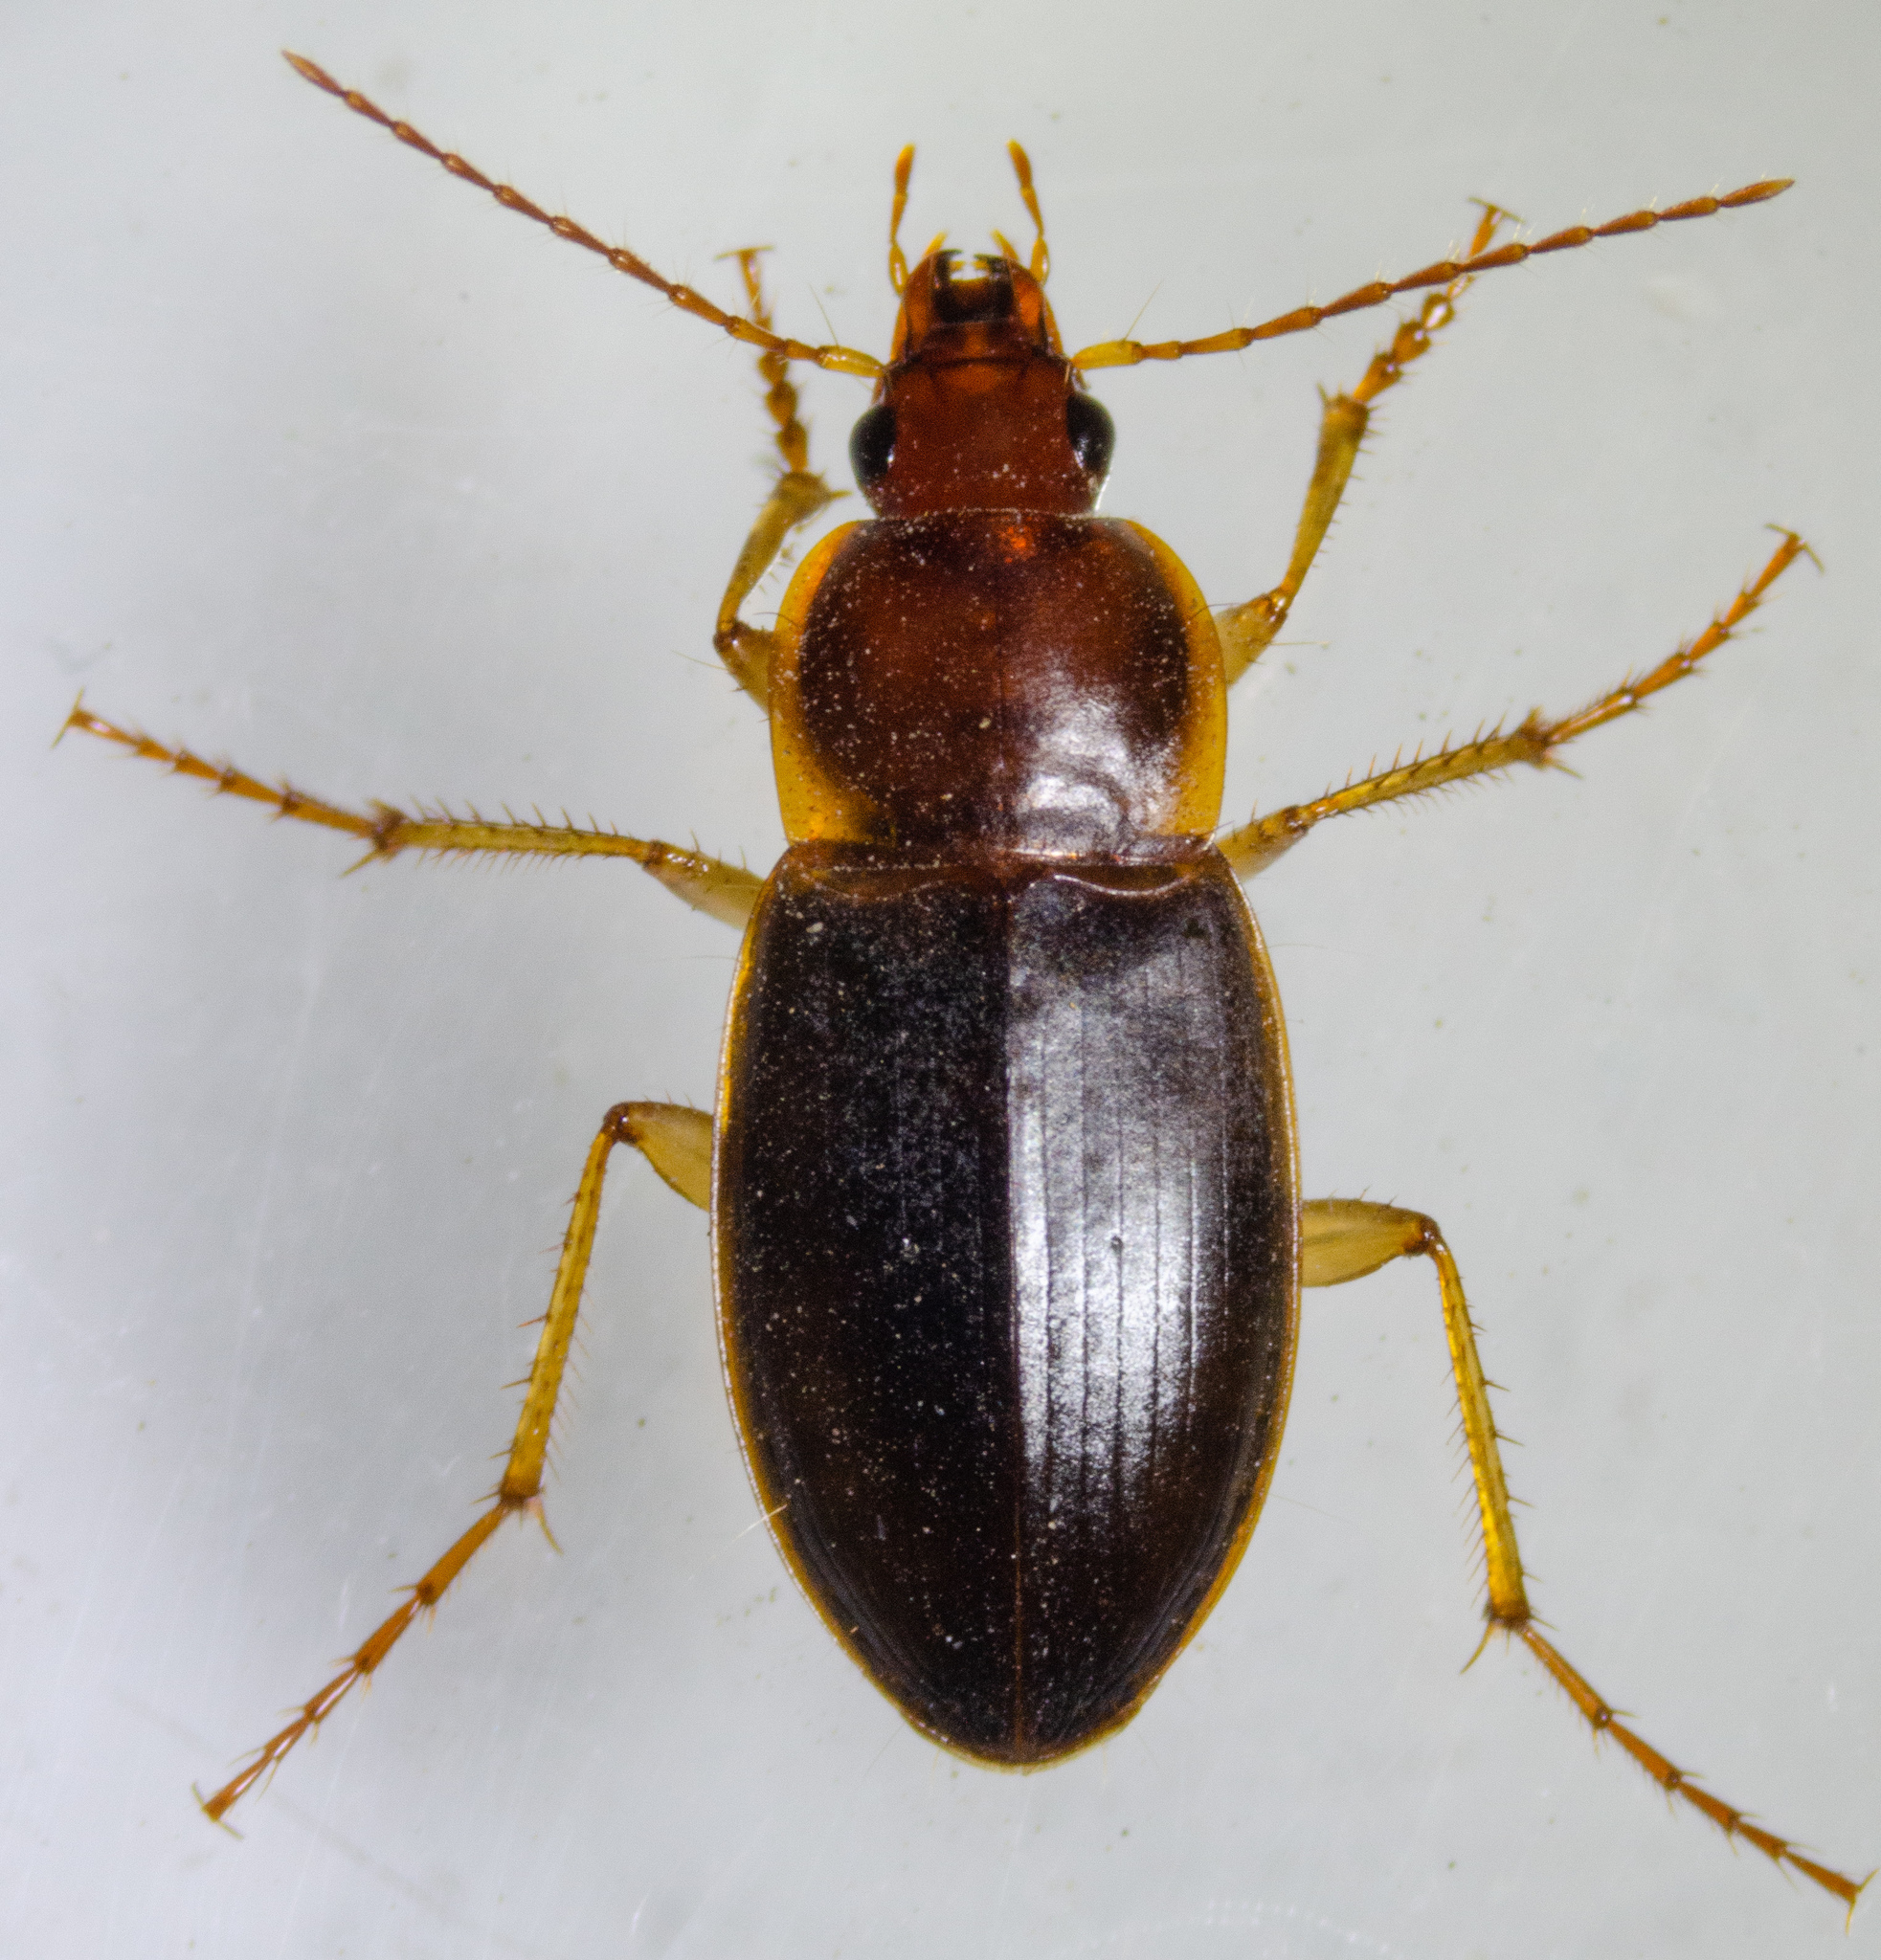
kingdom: Animalia
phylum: Arthropoda
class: Insecta
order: Coleoptera
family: Carabidae
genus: Calathus
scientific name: Calathus ruficollis
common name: Red-collared harp ground beetle
